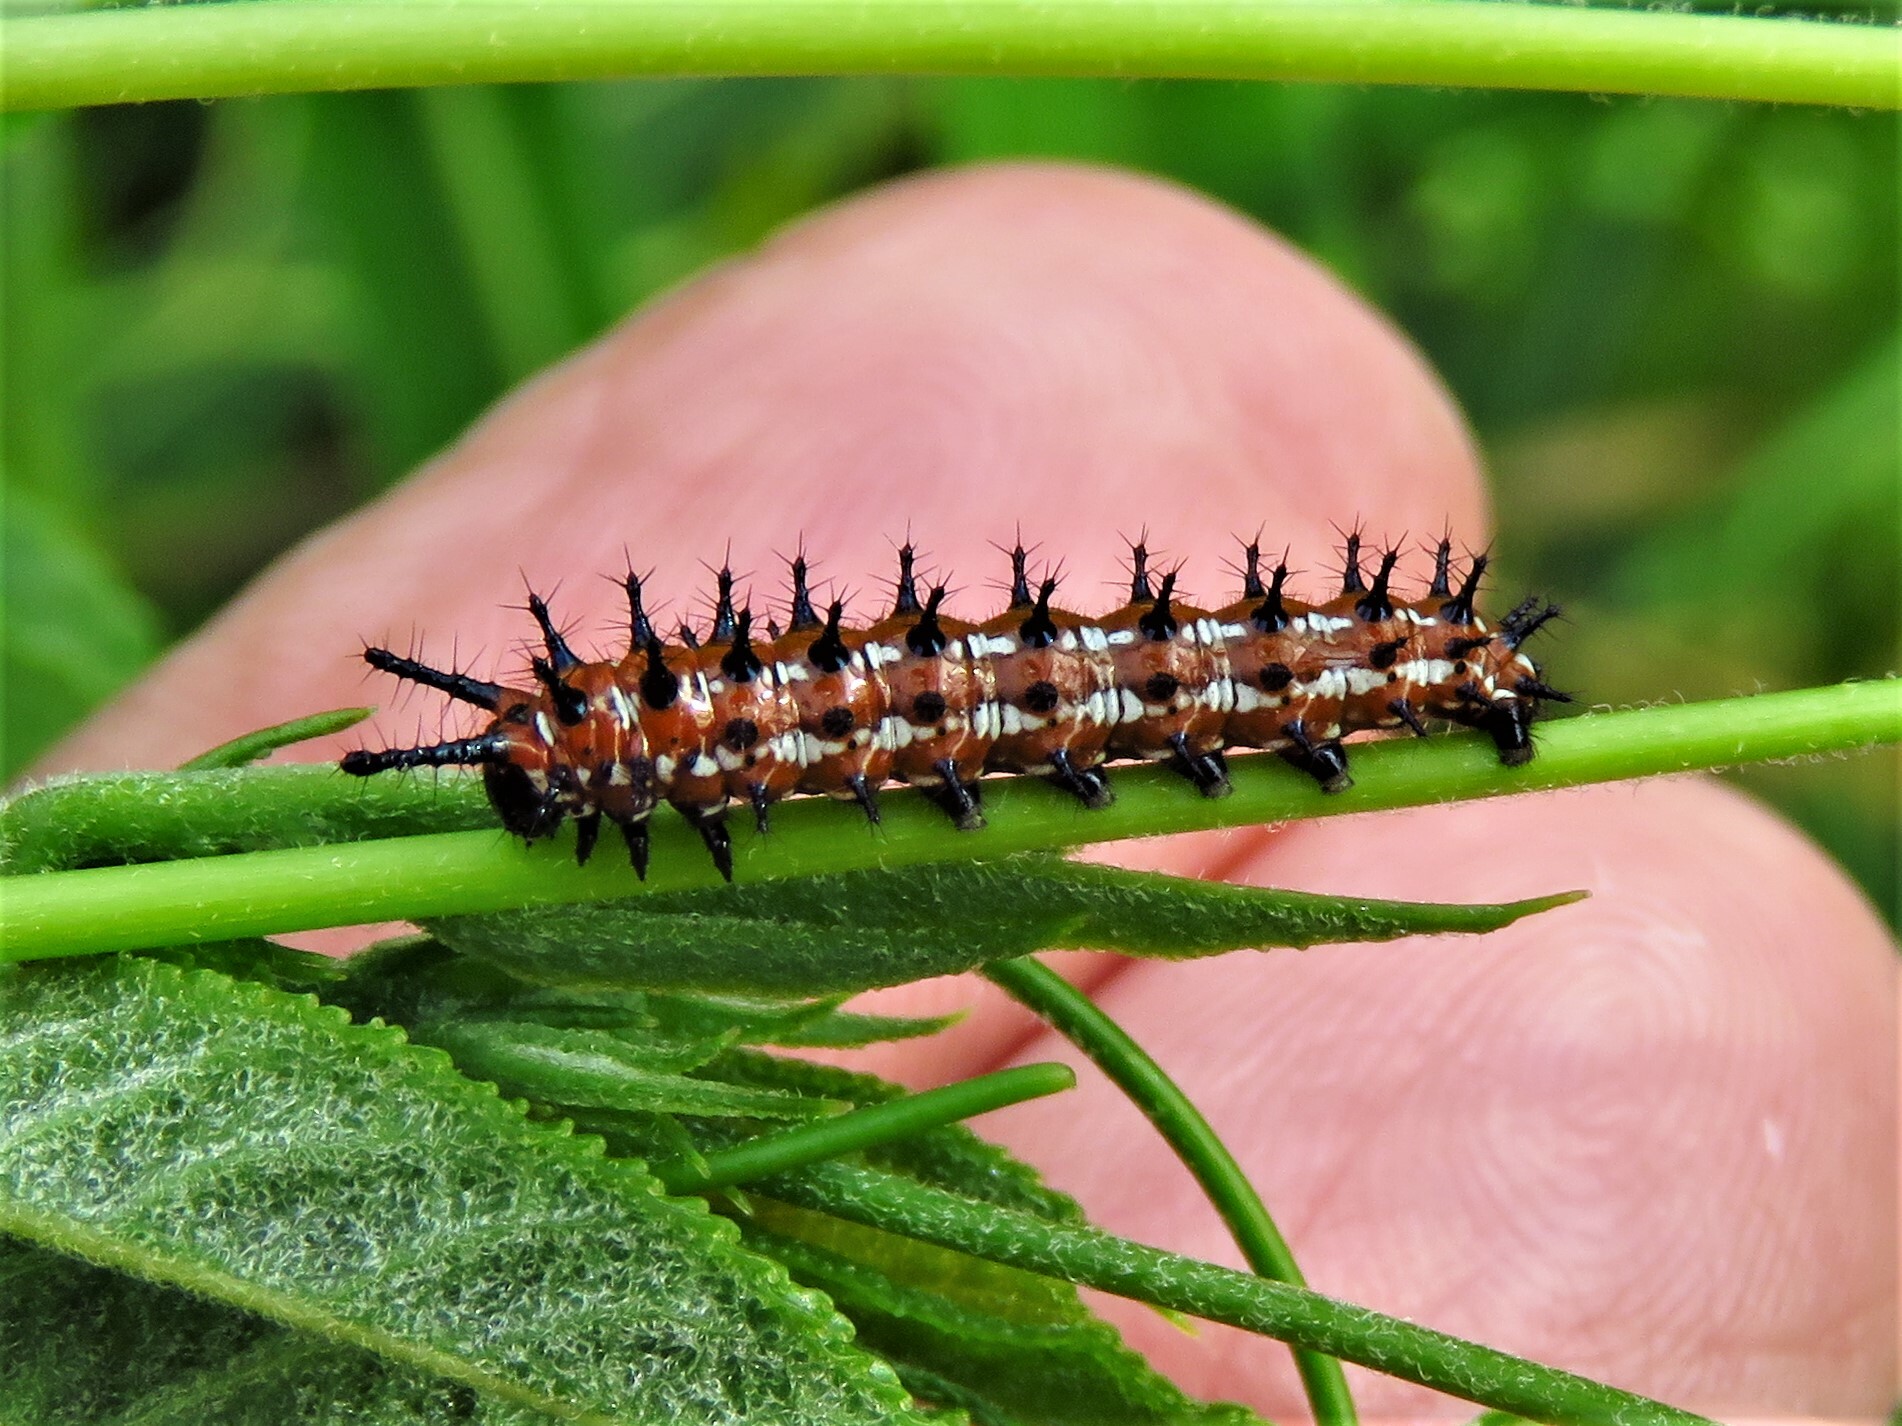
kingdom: Animalia
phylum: Arthropoda
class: Insecta
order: Lepidoptera
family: Nymphalidae
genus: Euptoieta
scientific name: Euptoieta claudia
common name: Variegated fritillary
